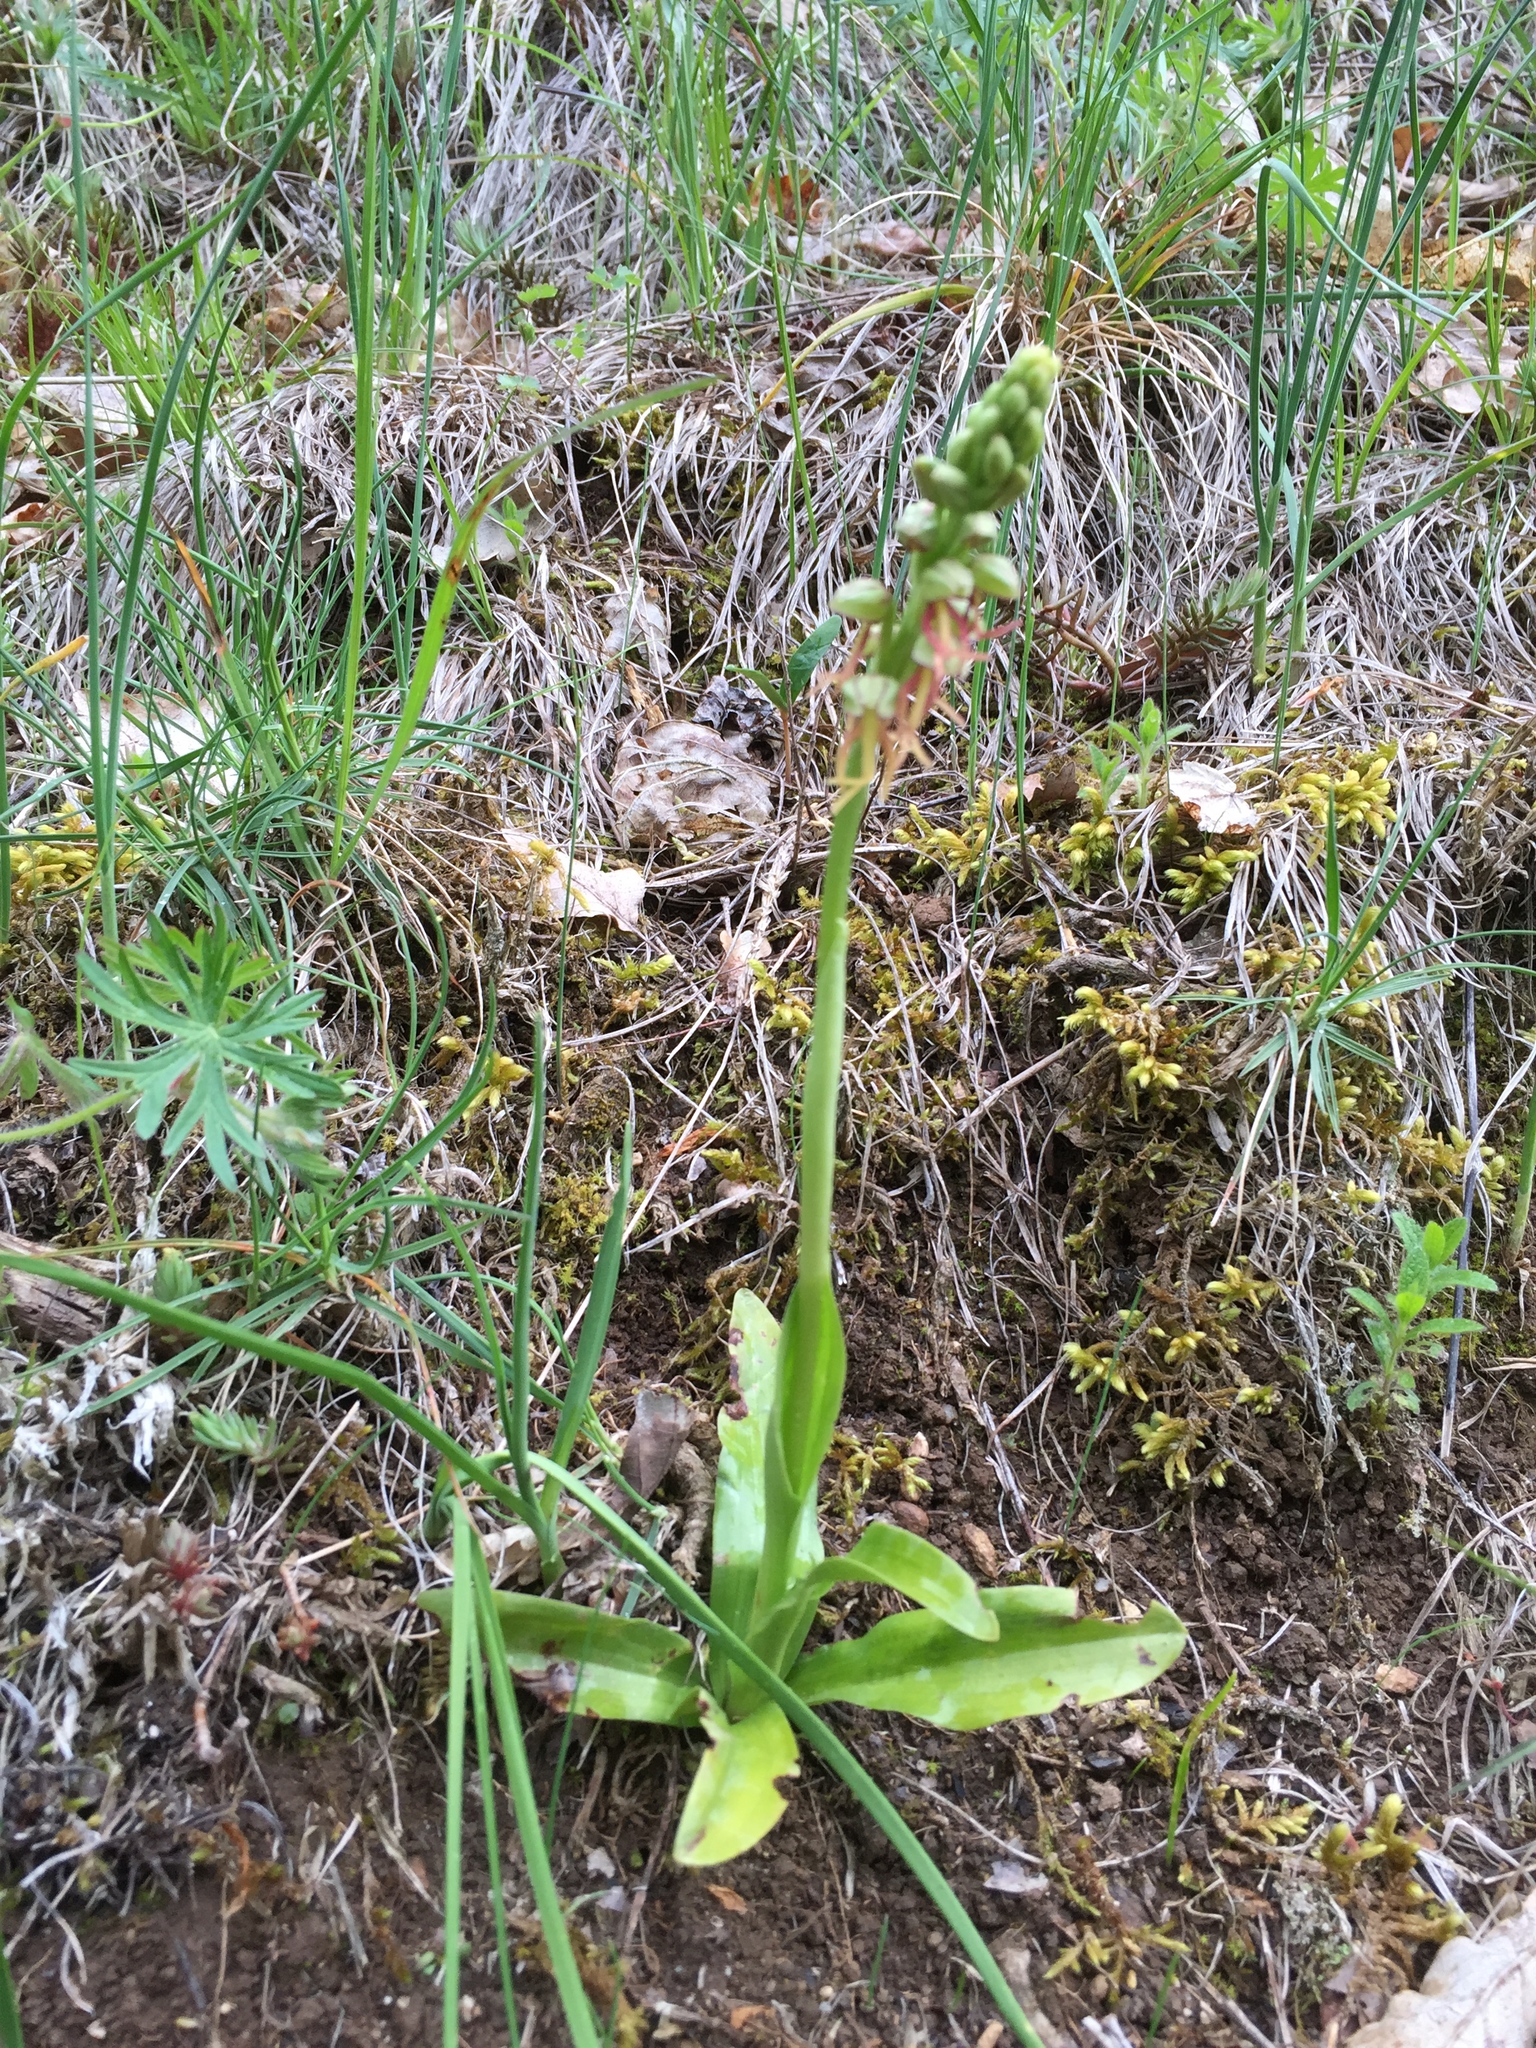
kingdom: Plantae
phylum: Tracheophyta
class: Liliopsida
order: Asparagales
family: Orchidaceae
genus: Orchis
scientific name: Orchis anthropophora
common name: Man orchid
